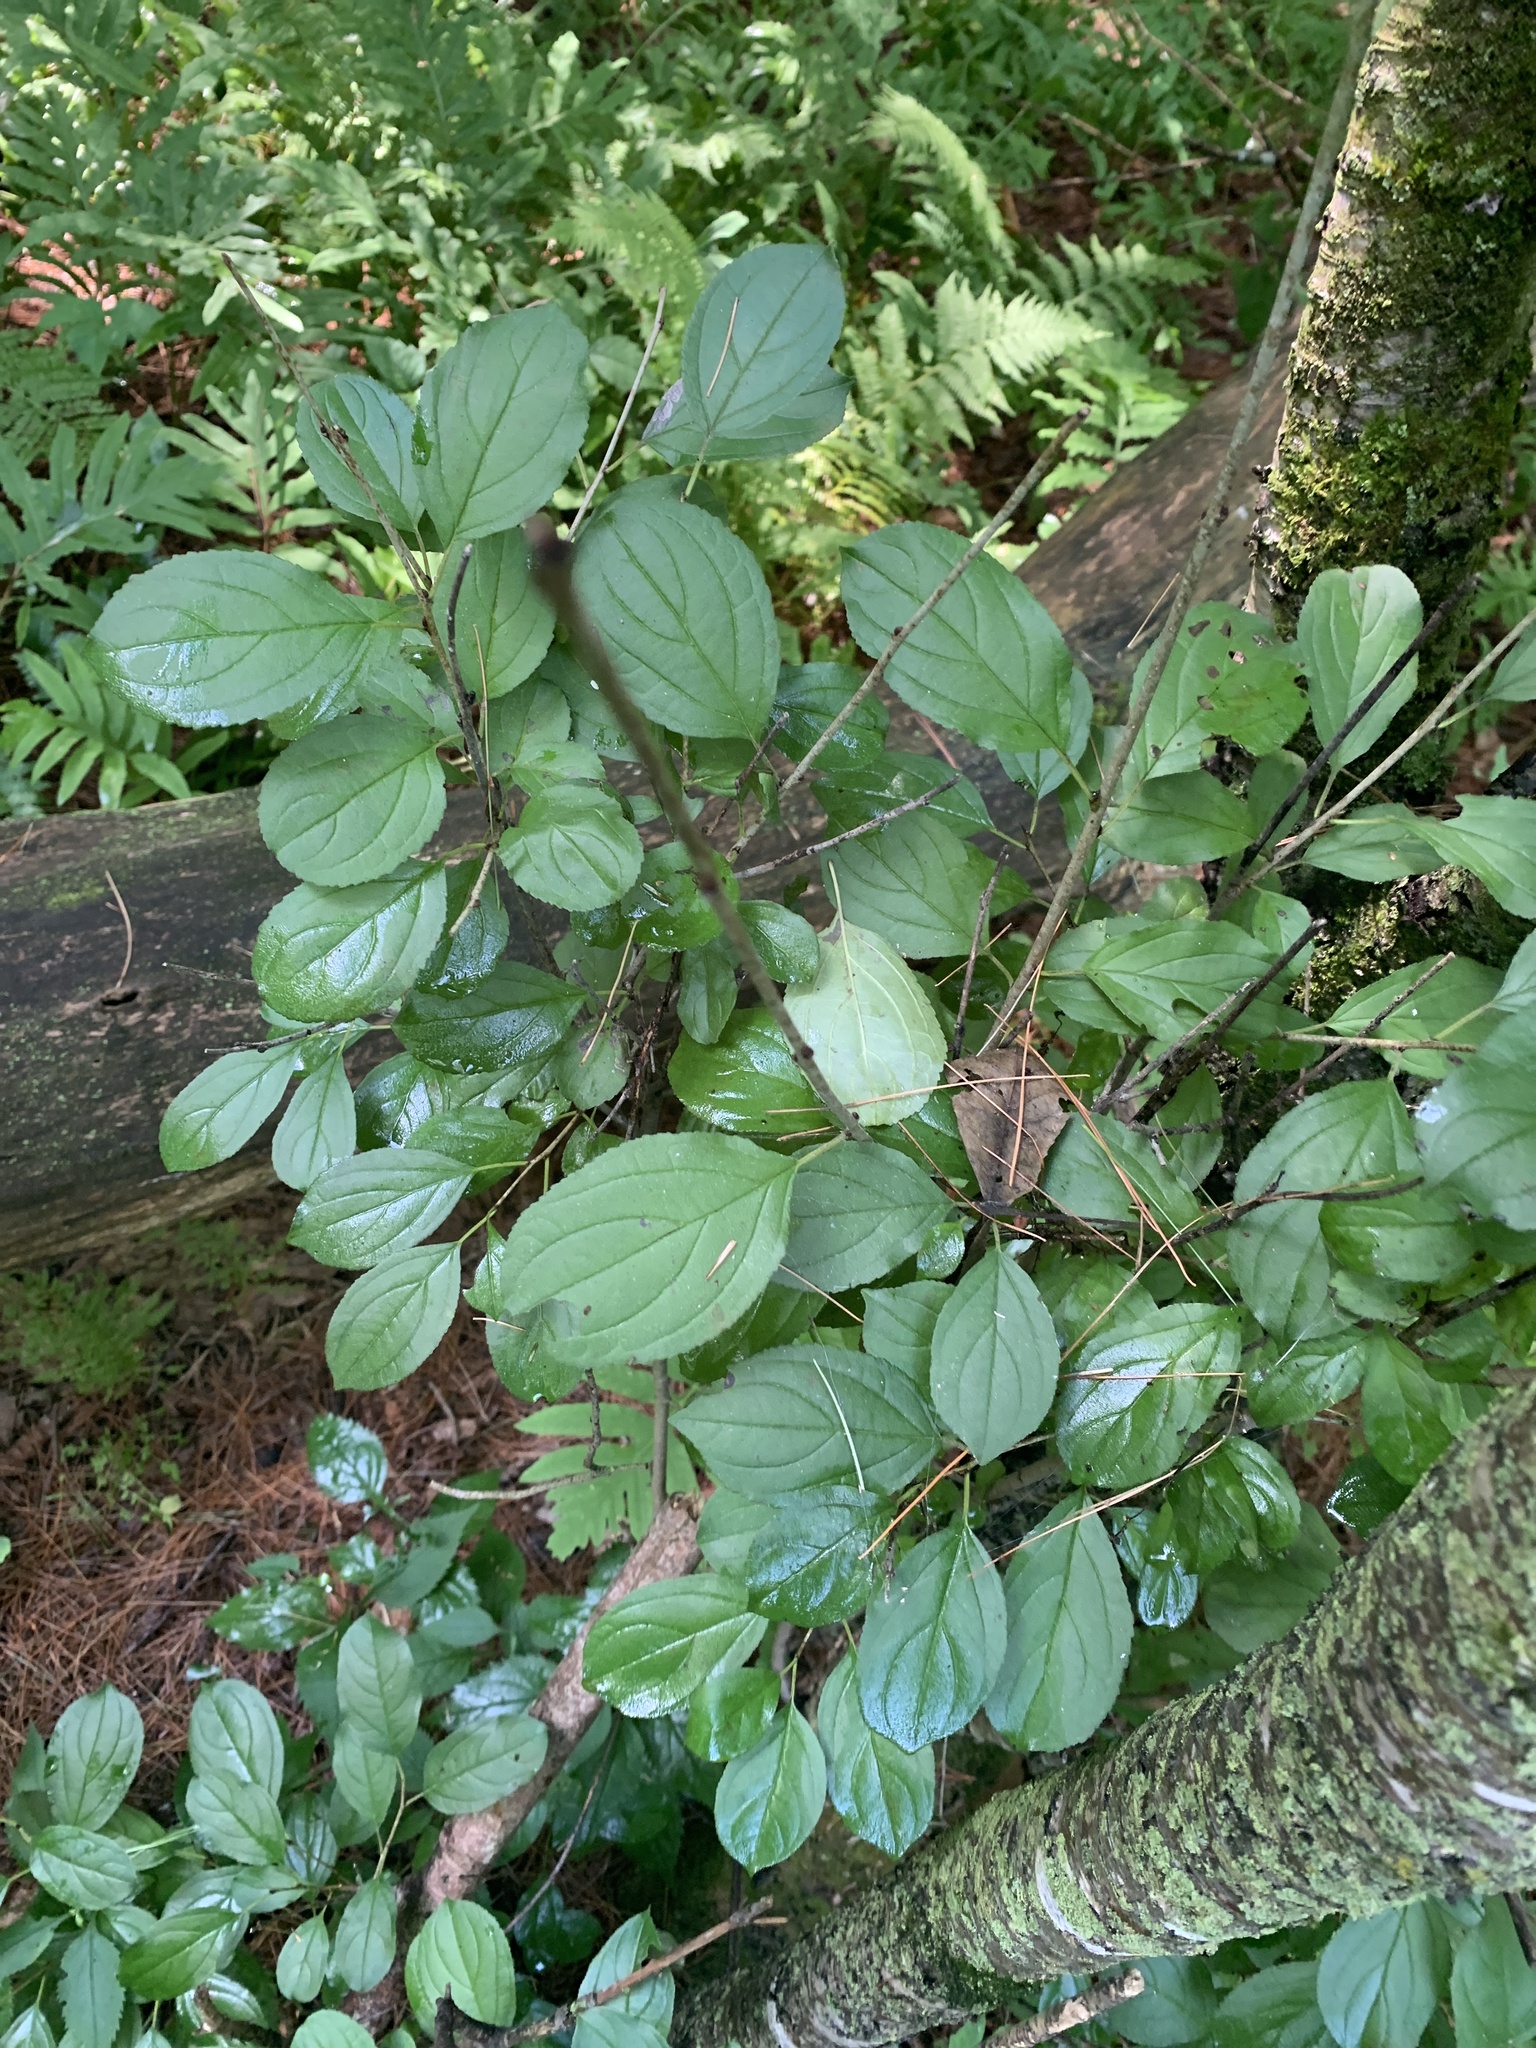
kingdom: Plantae
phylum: Tracheophyta
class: Magnoliopsida
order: Rosales
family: Rhamnaceae
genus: Rhamnus
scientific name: Rhamnus cathartica
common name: Common buckthorn
